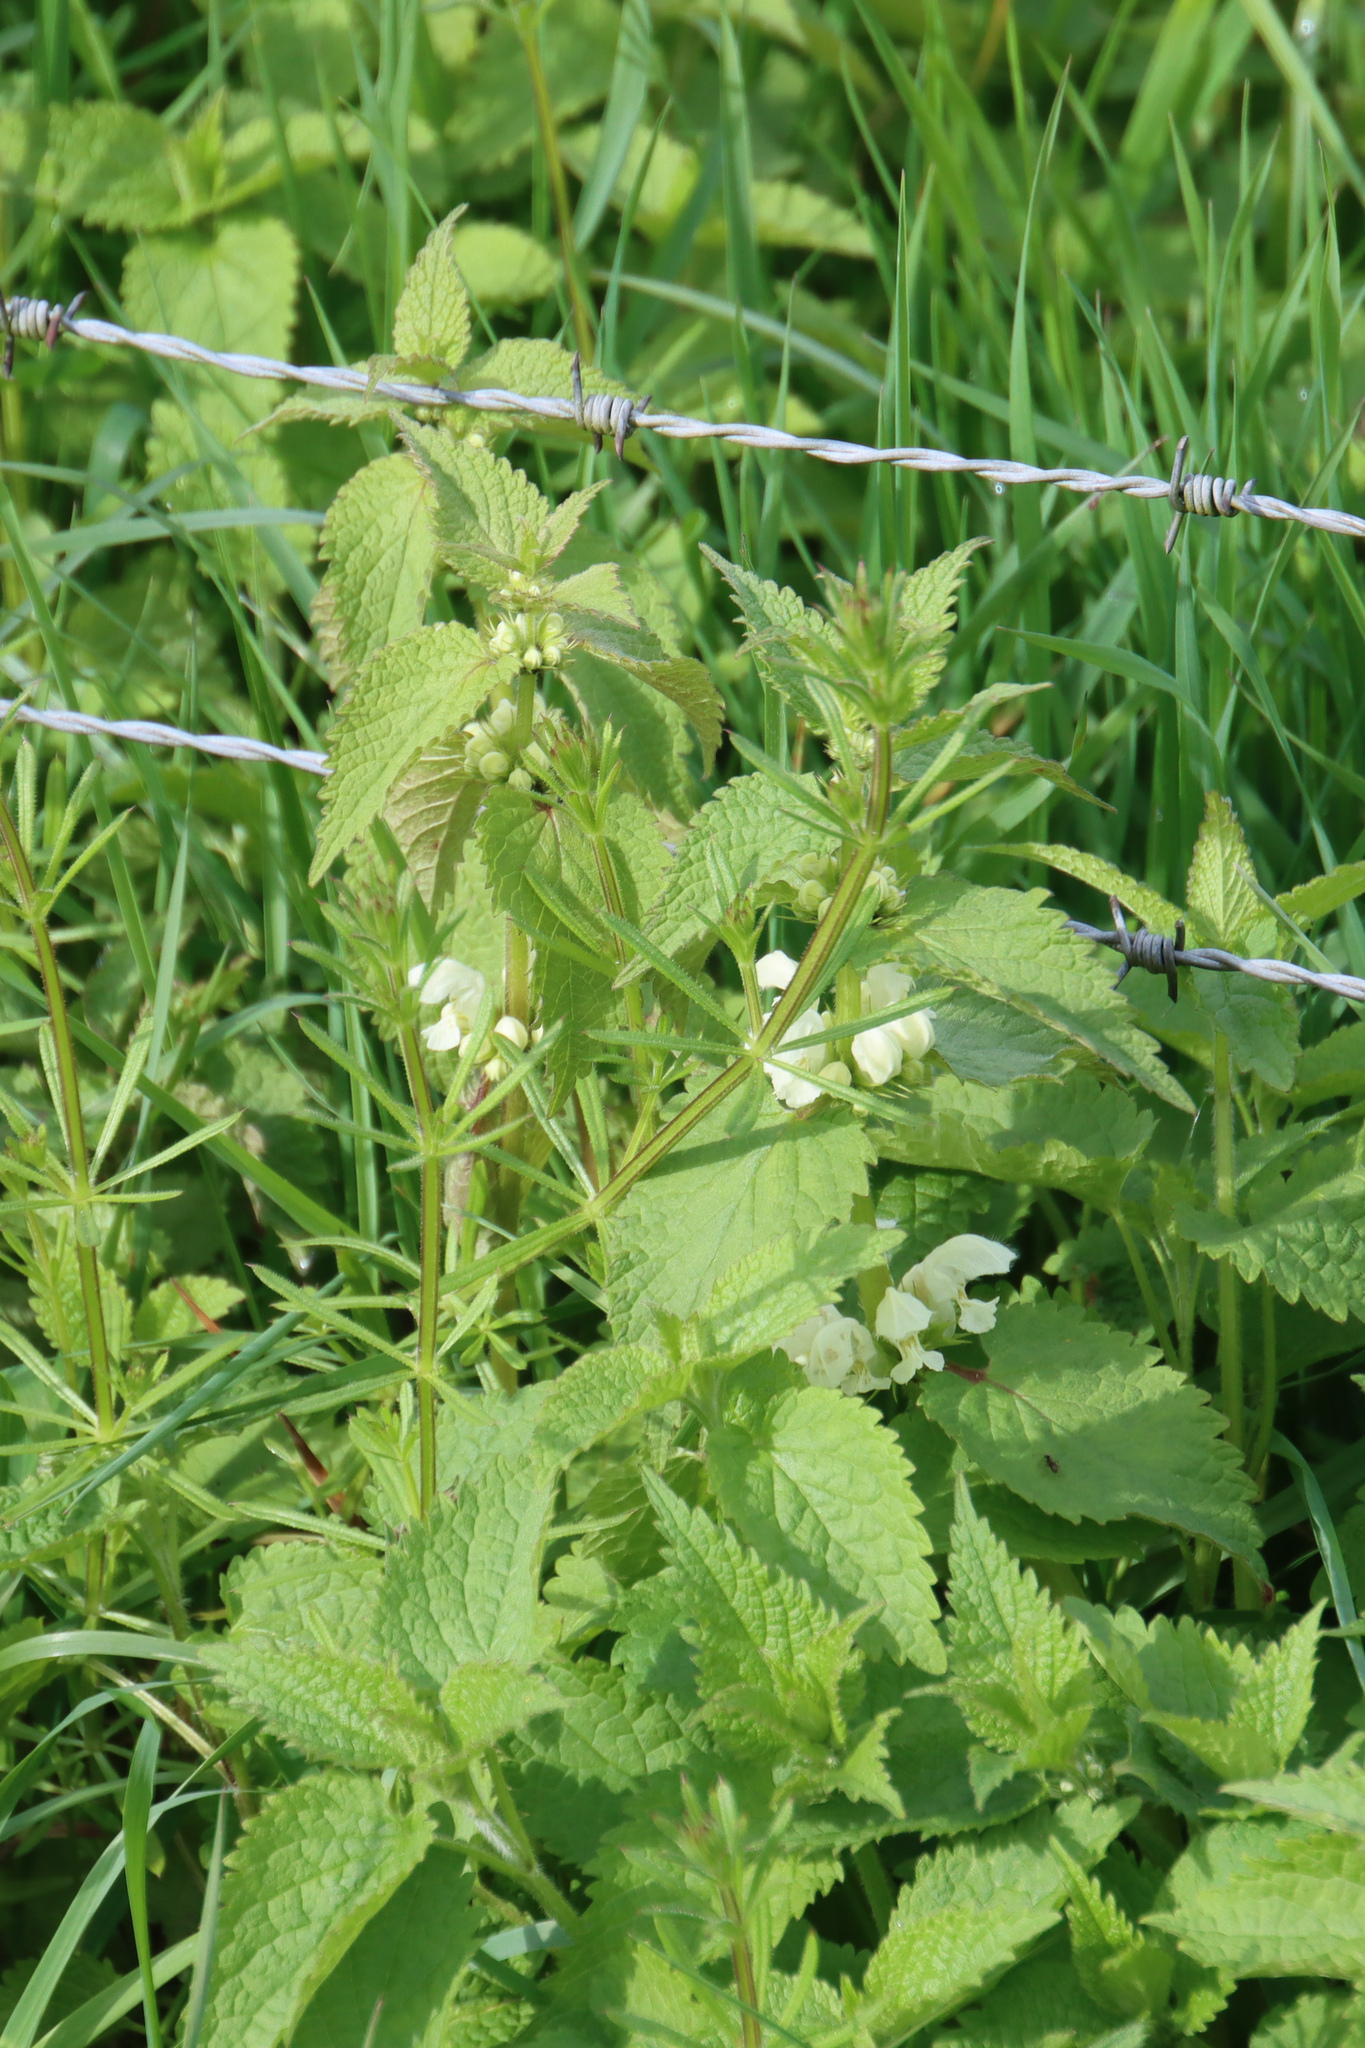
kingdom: Plantae
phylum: Tracheophyta
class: Magnoliopsida
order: Lamiales
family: Lamiaceae
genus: Lamium
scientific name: Lamium album
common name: White dead-nettle
